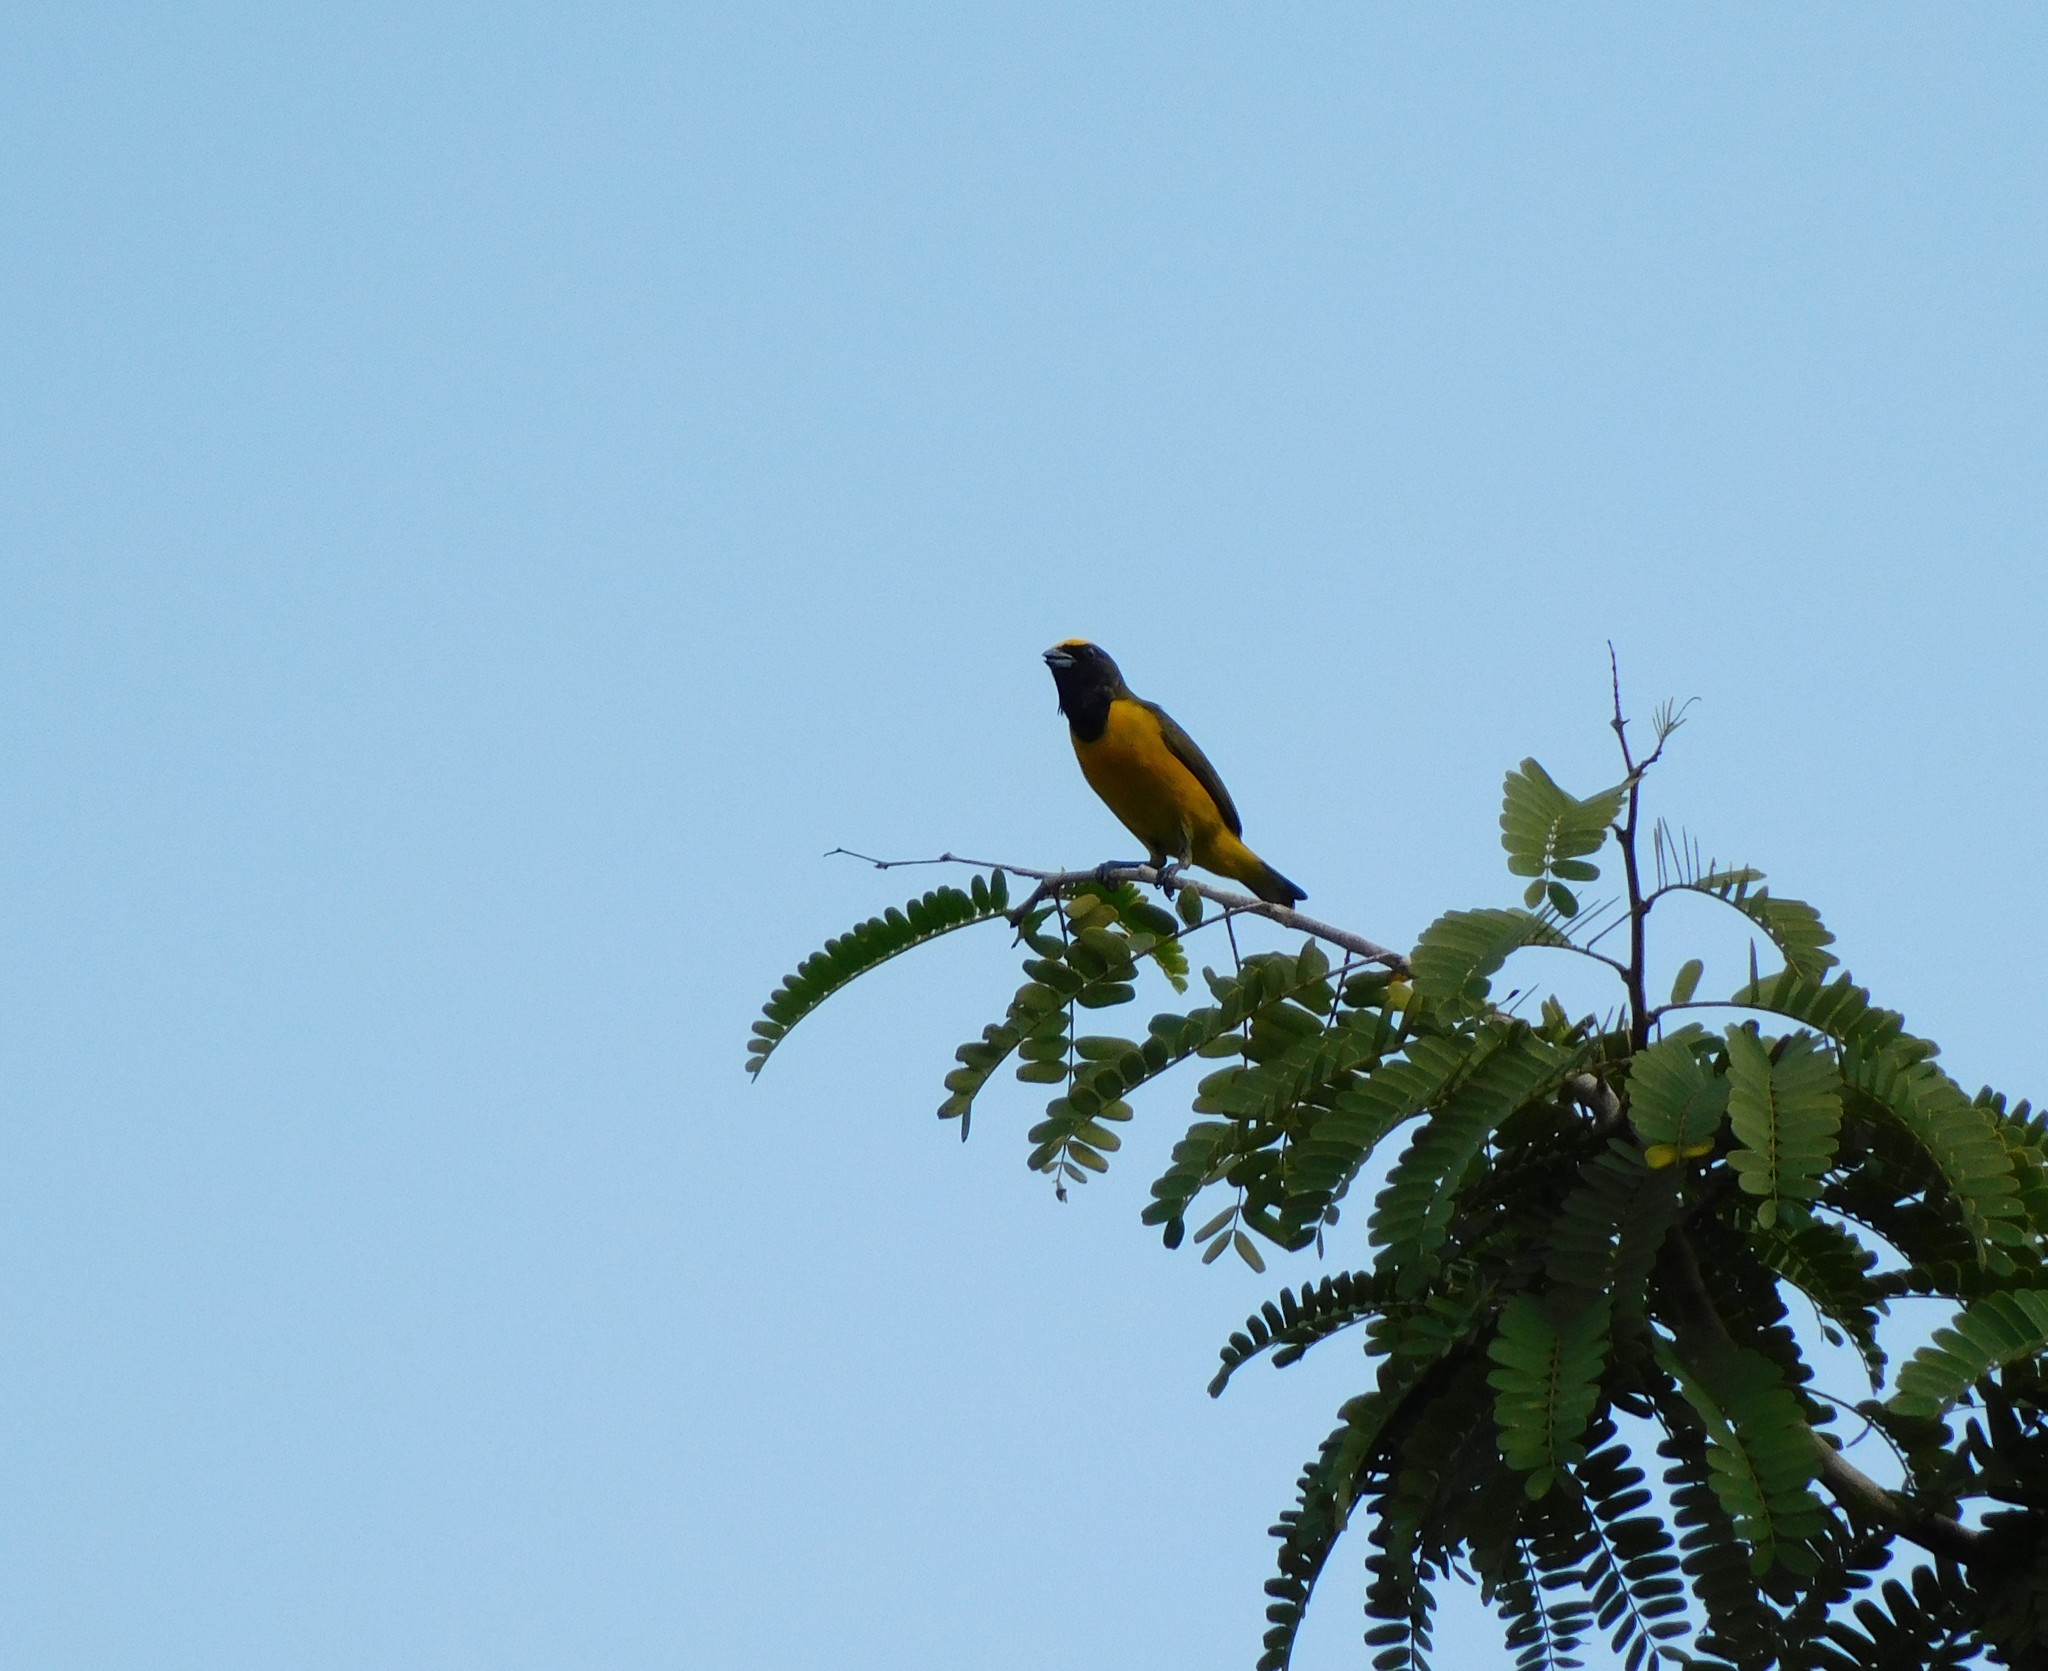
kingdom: Animalia
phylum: Chordata
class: Aves
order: Passeriformes
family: Fringillidae
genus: Euphonia
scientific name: Euphonia trinitatis
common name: Trinidad euphonia
